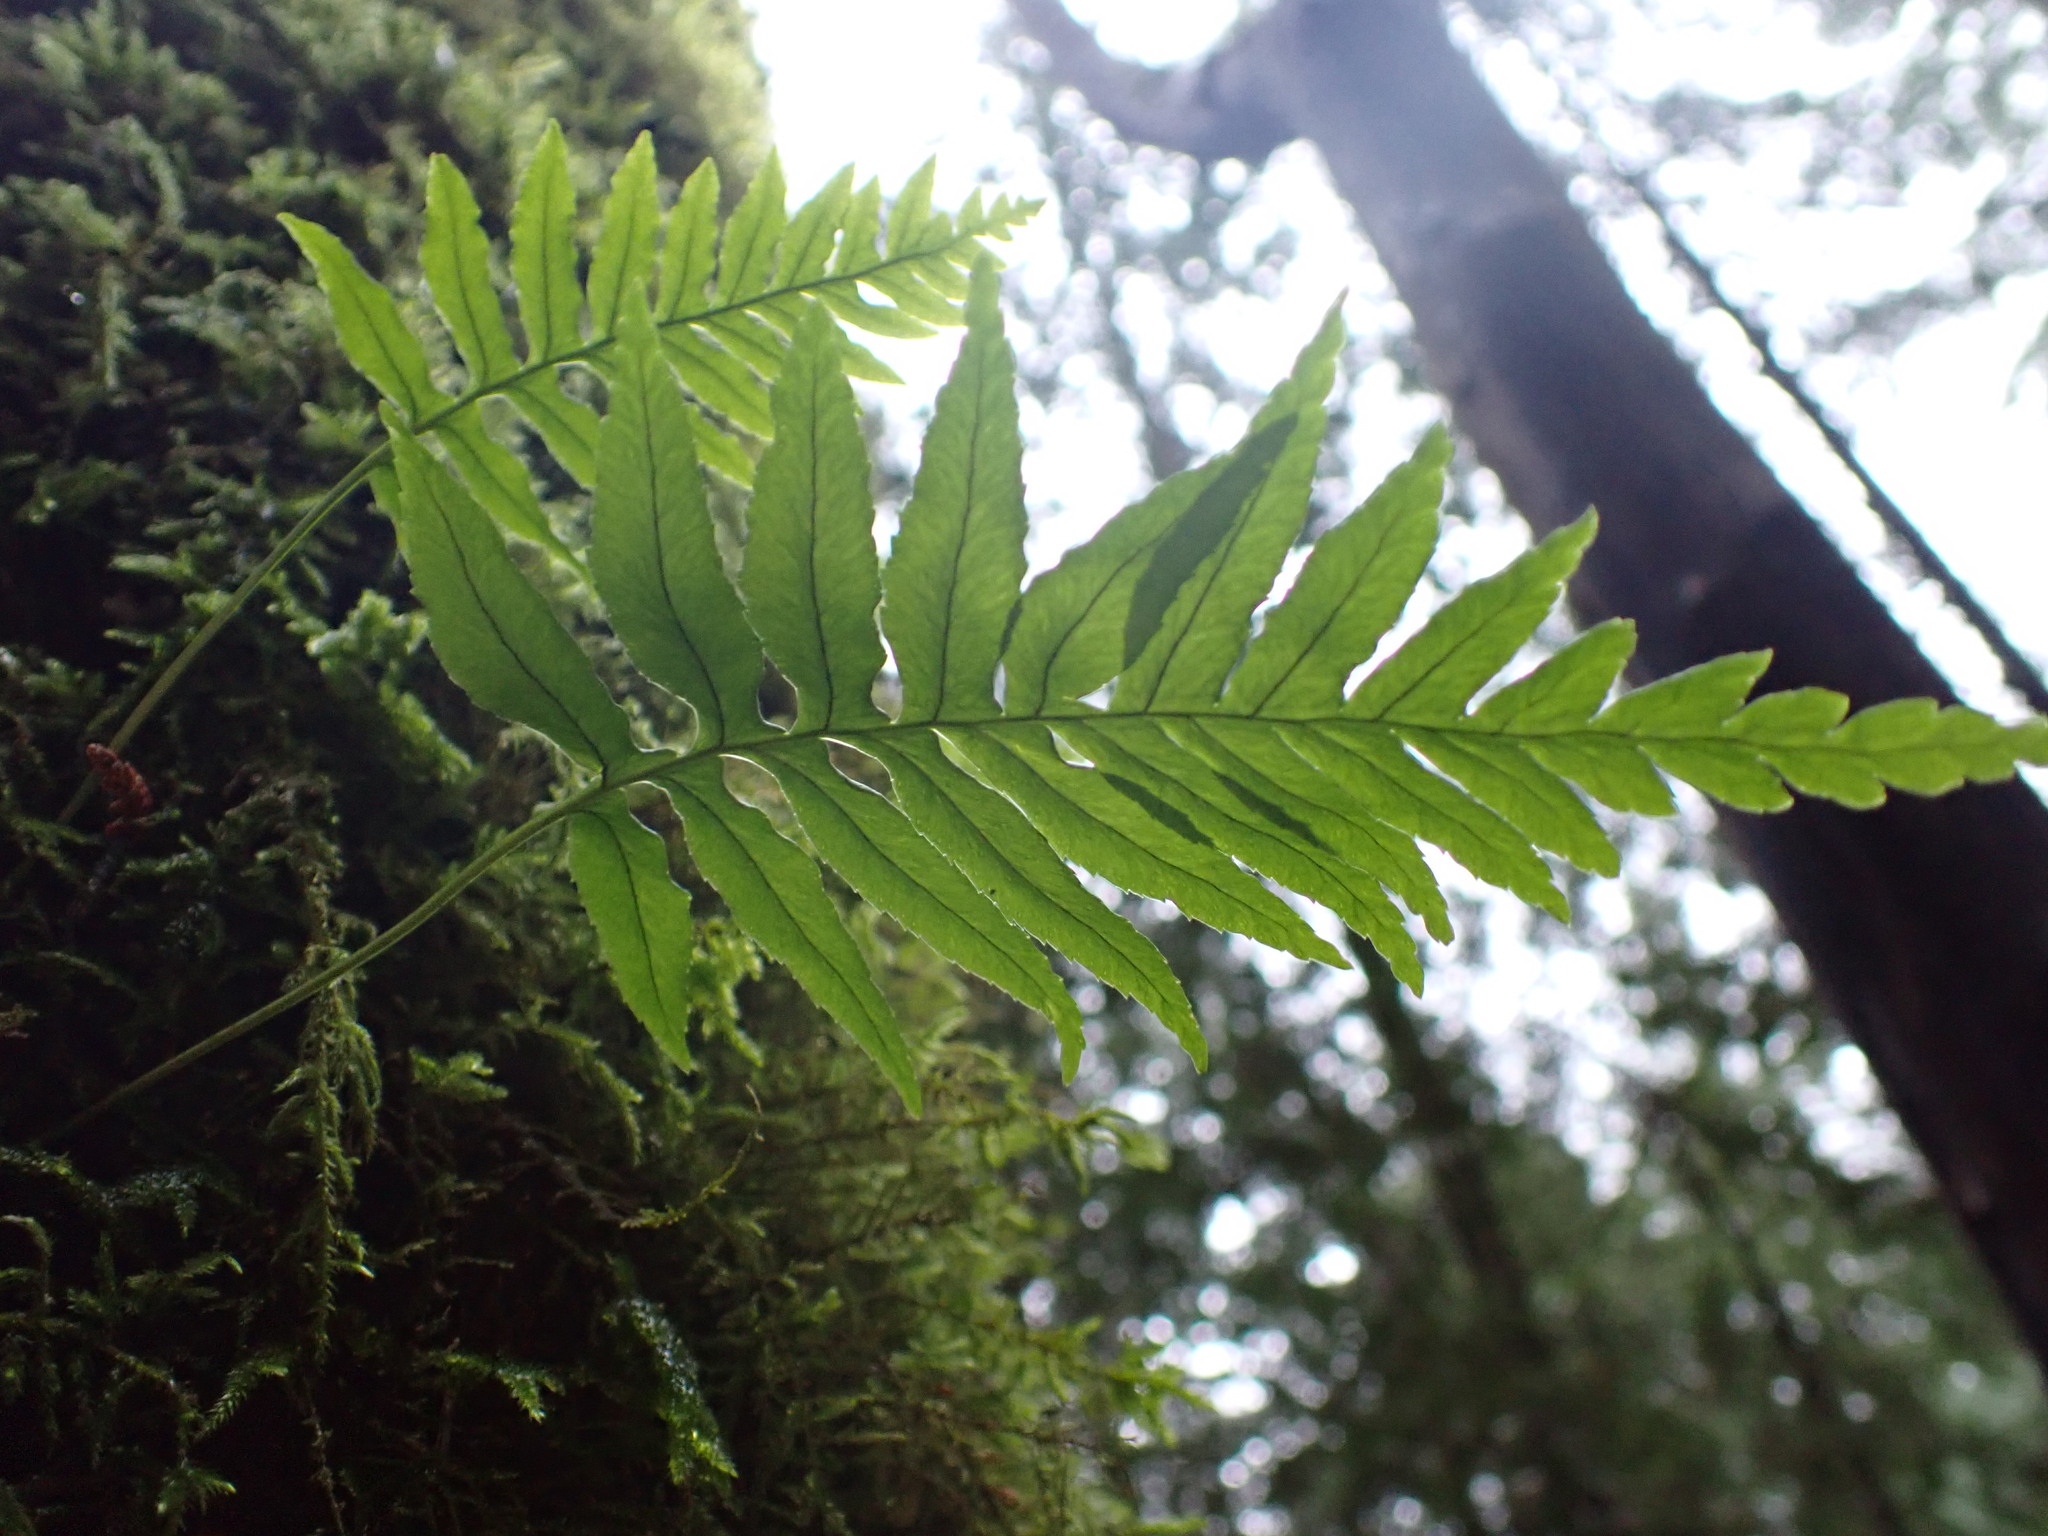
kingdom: Plantae
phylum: Tracheophyta
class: Polypodiopsida
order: Polypodiales
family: Polypodiaceae
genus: Polypodium
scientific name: Polypodium glycyrrhiza
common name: Licorice fern
